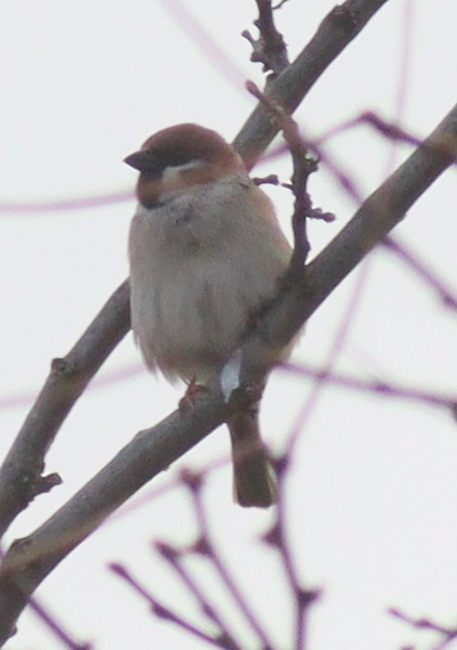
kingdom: Animalia
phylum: Chordata
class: Aves
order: Passeriformes
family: Passeridae
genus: Passer
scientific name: Passer montanus
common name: Eurasian tree sparrow
